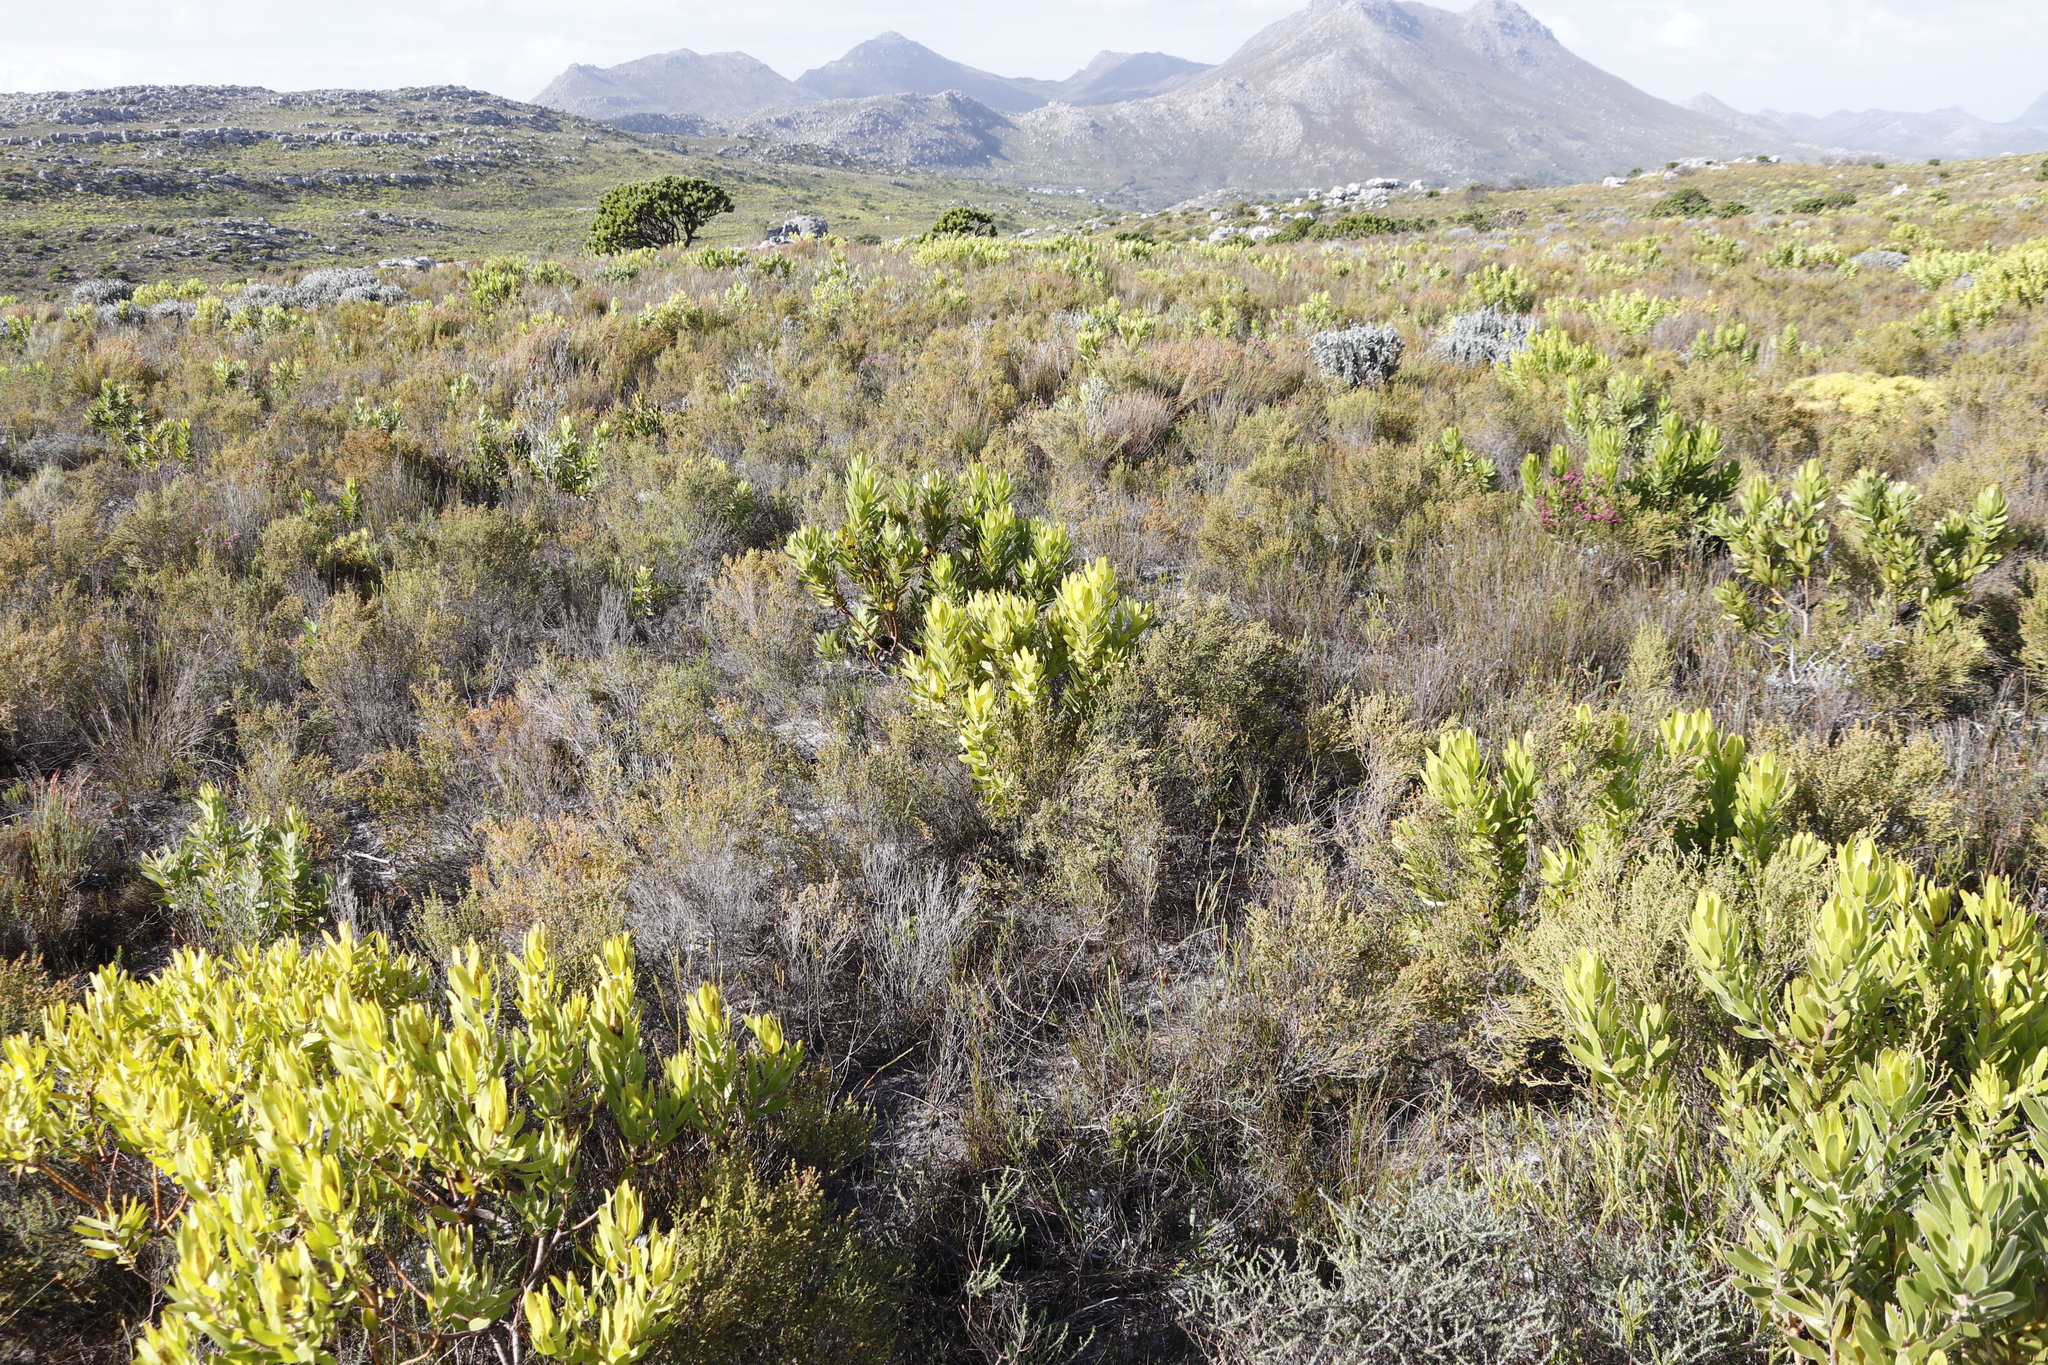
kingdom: Plantae
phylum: Tracheophyta
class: Magnoliopsida
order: Proteales
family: Proteaceae
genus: Leucadendron
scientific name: Leucadendron laureolum
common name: Golden sunshinebush
